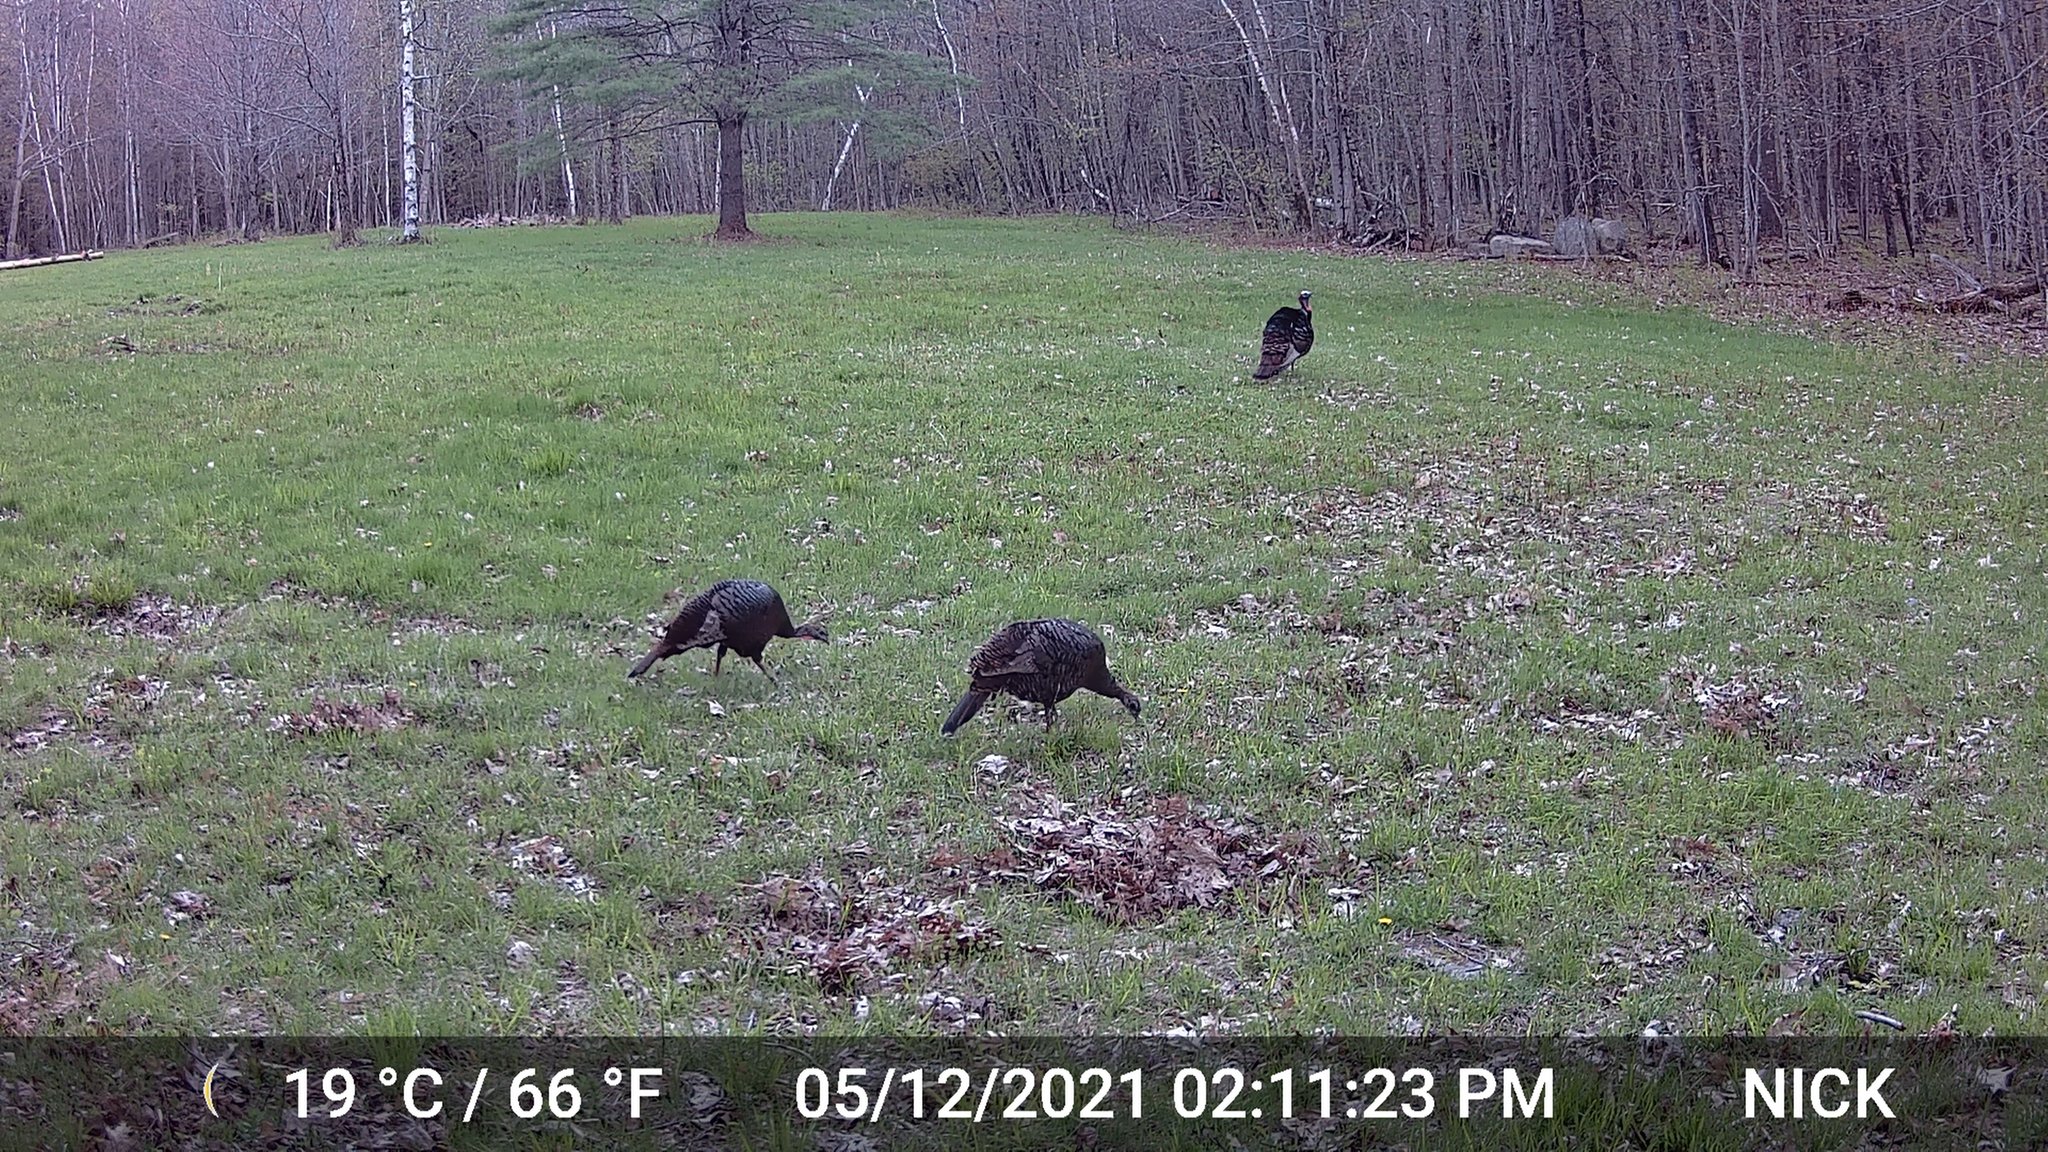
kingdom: Animalia
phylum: Chordata
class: Aves
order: Galliformes
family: Phasianidae
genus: Meleagris
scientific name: Meleagris gallopavo
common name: Wild turkey
